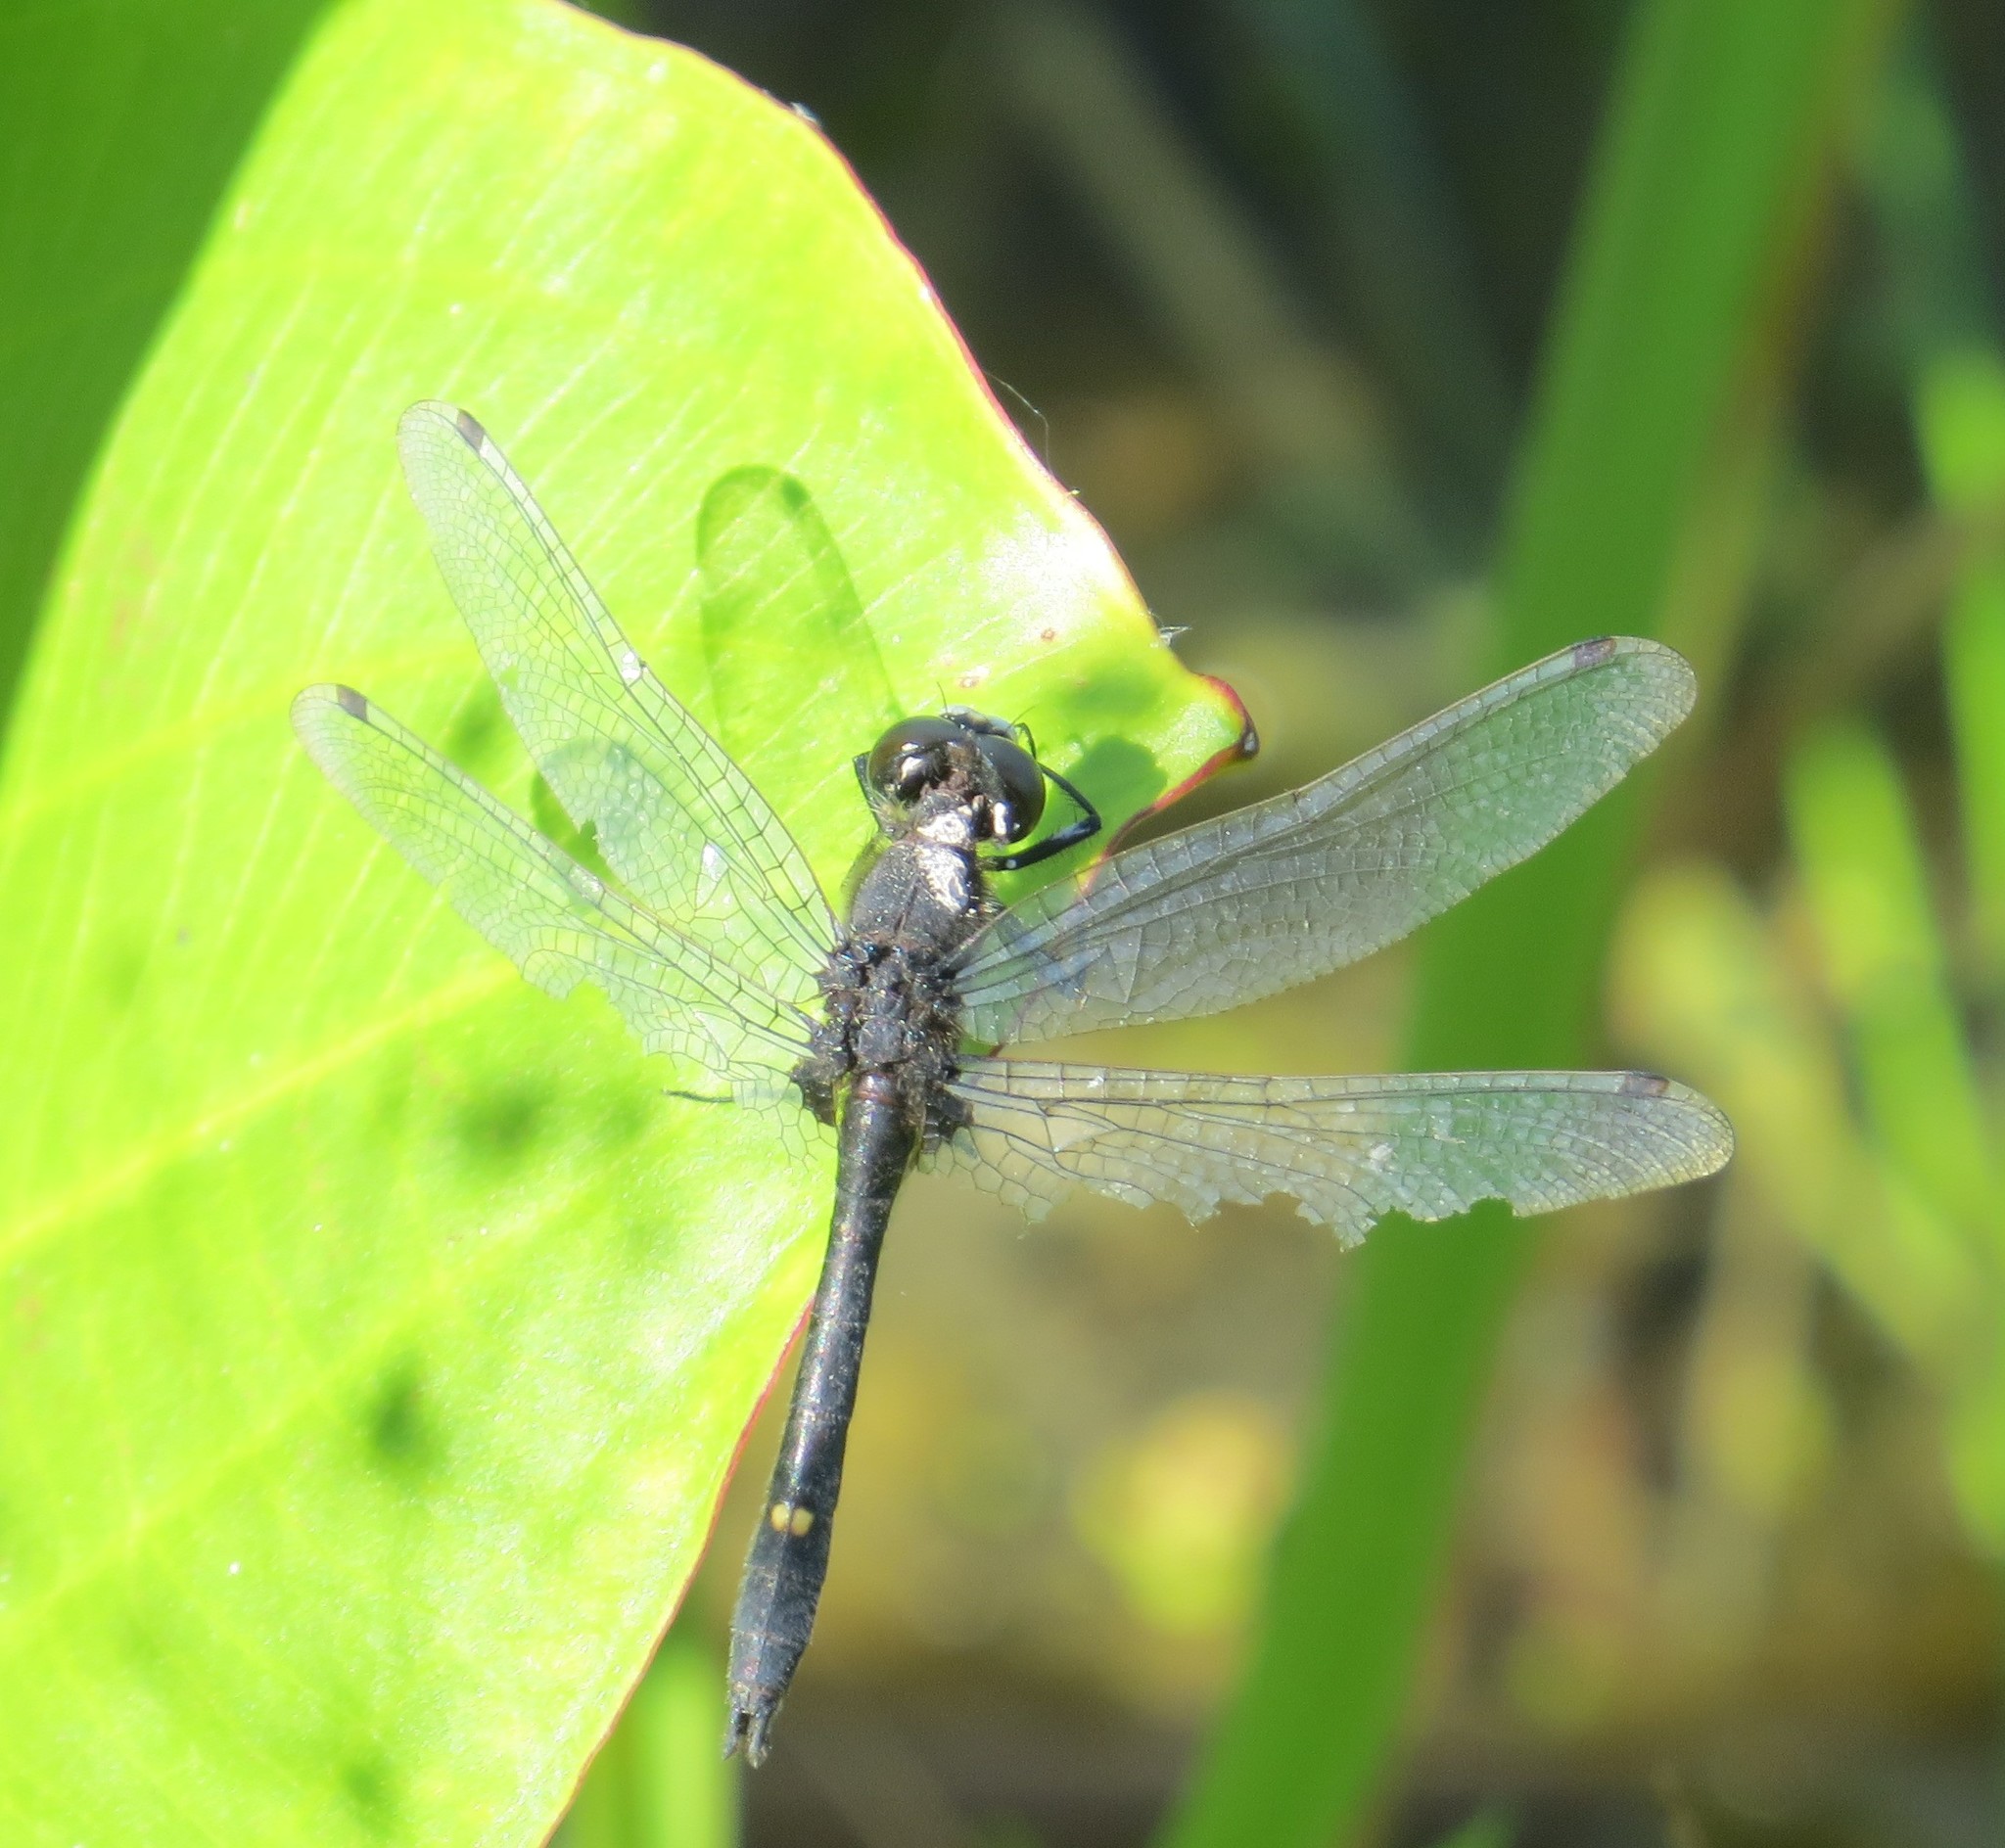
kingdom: Animalia
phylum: Arthropoda
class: Insecta
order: Odonata
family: Libellulidae
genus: Leucorrhinia
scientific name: Leucorrhinia intacta
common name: Dot-tailed whiteface
